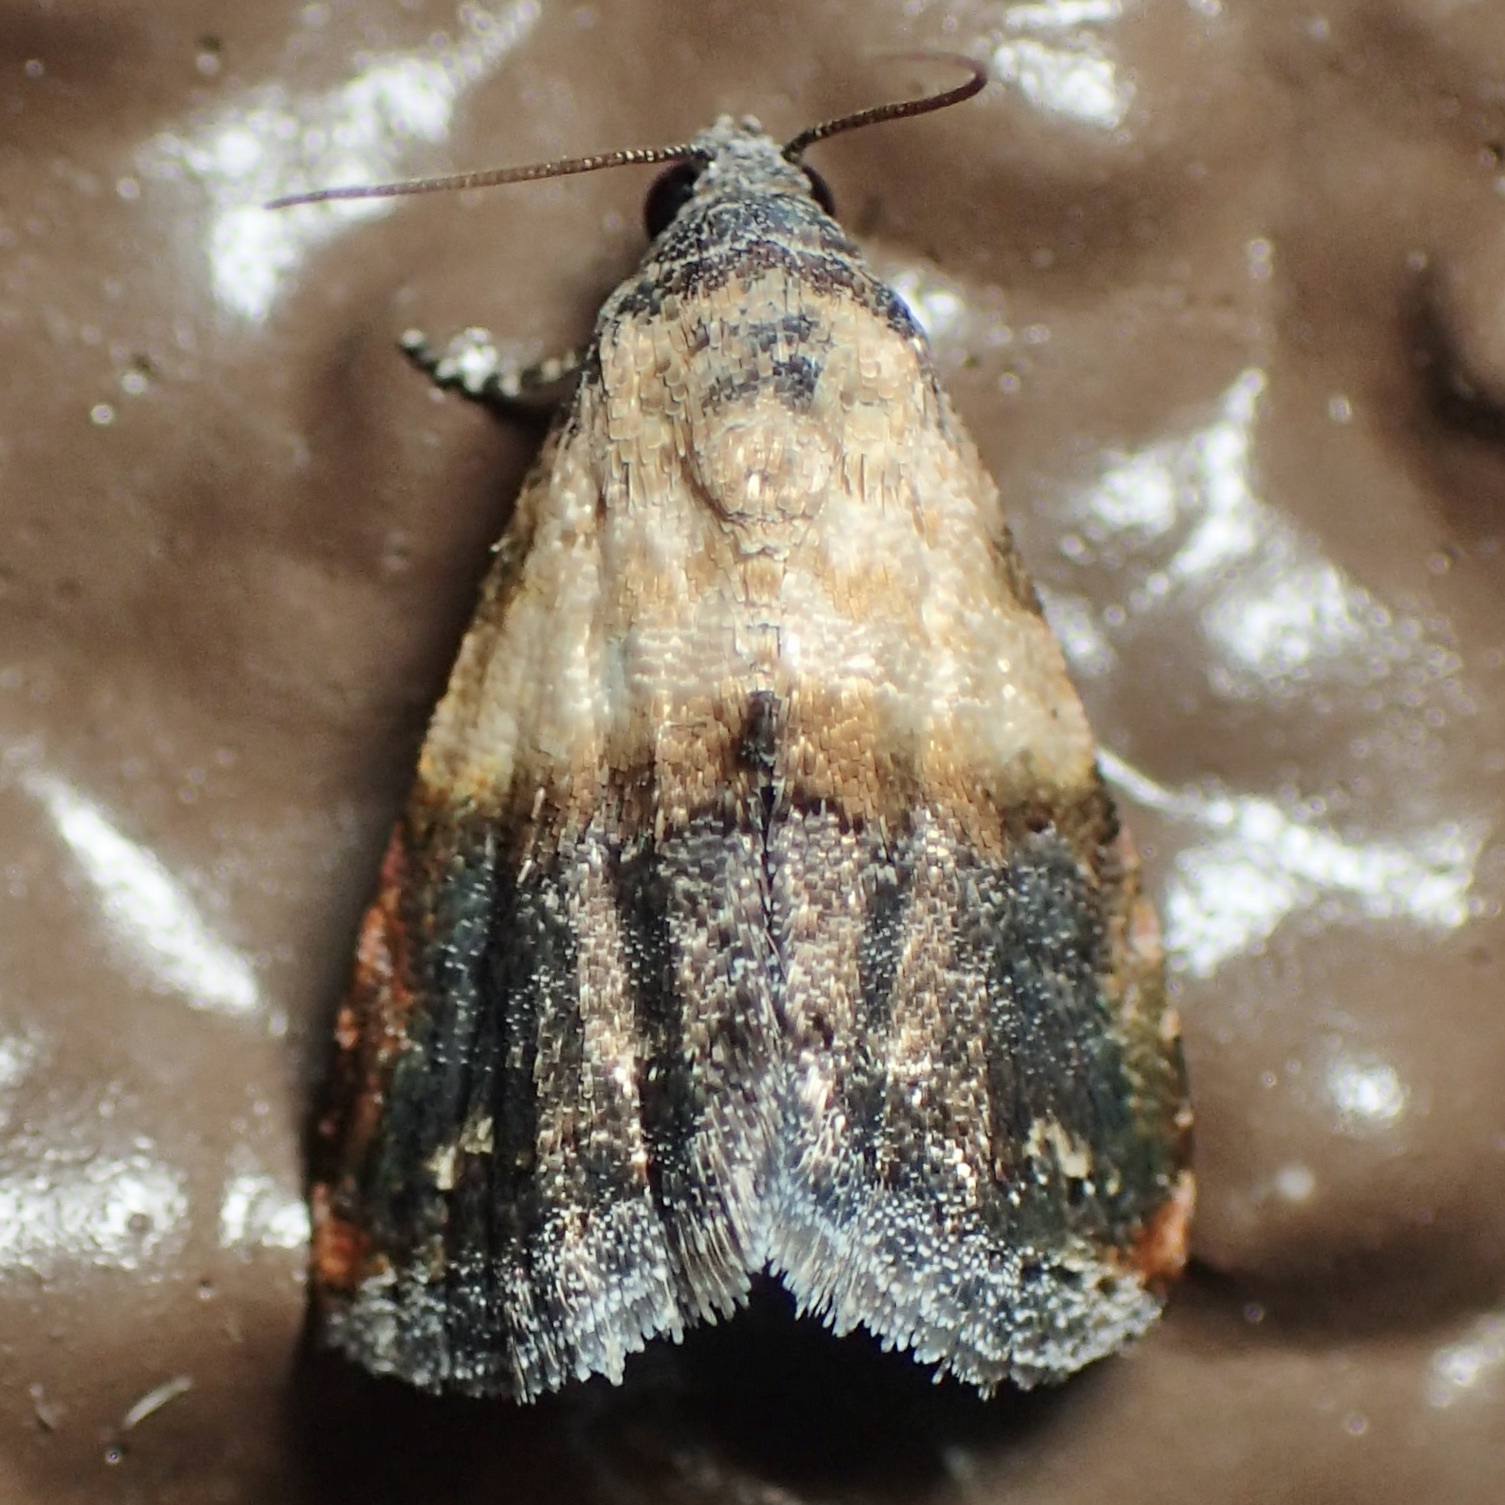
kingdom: Animalia
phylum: Arthropoda
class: Insecta
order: Lepidoptera
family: Noctuidae
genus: Tripudia
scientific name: Tripudia luda
